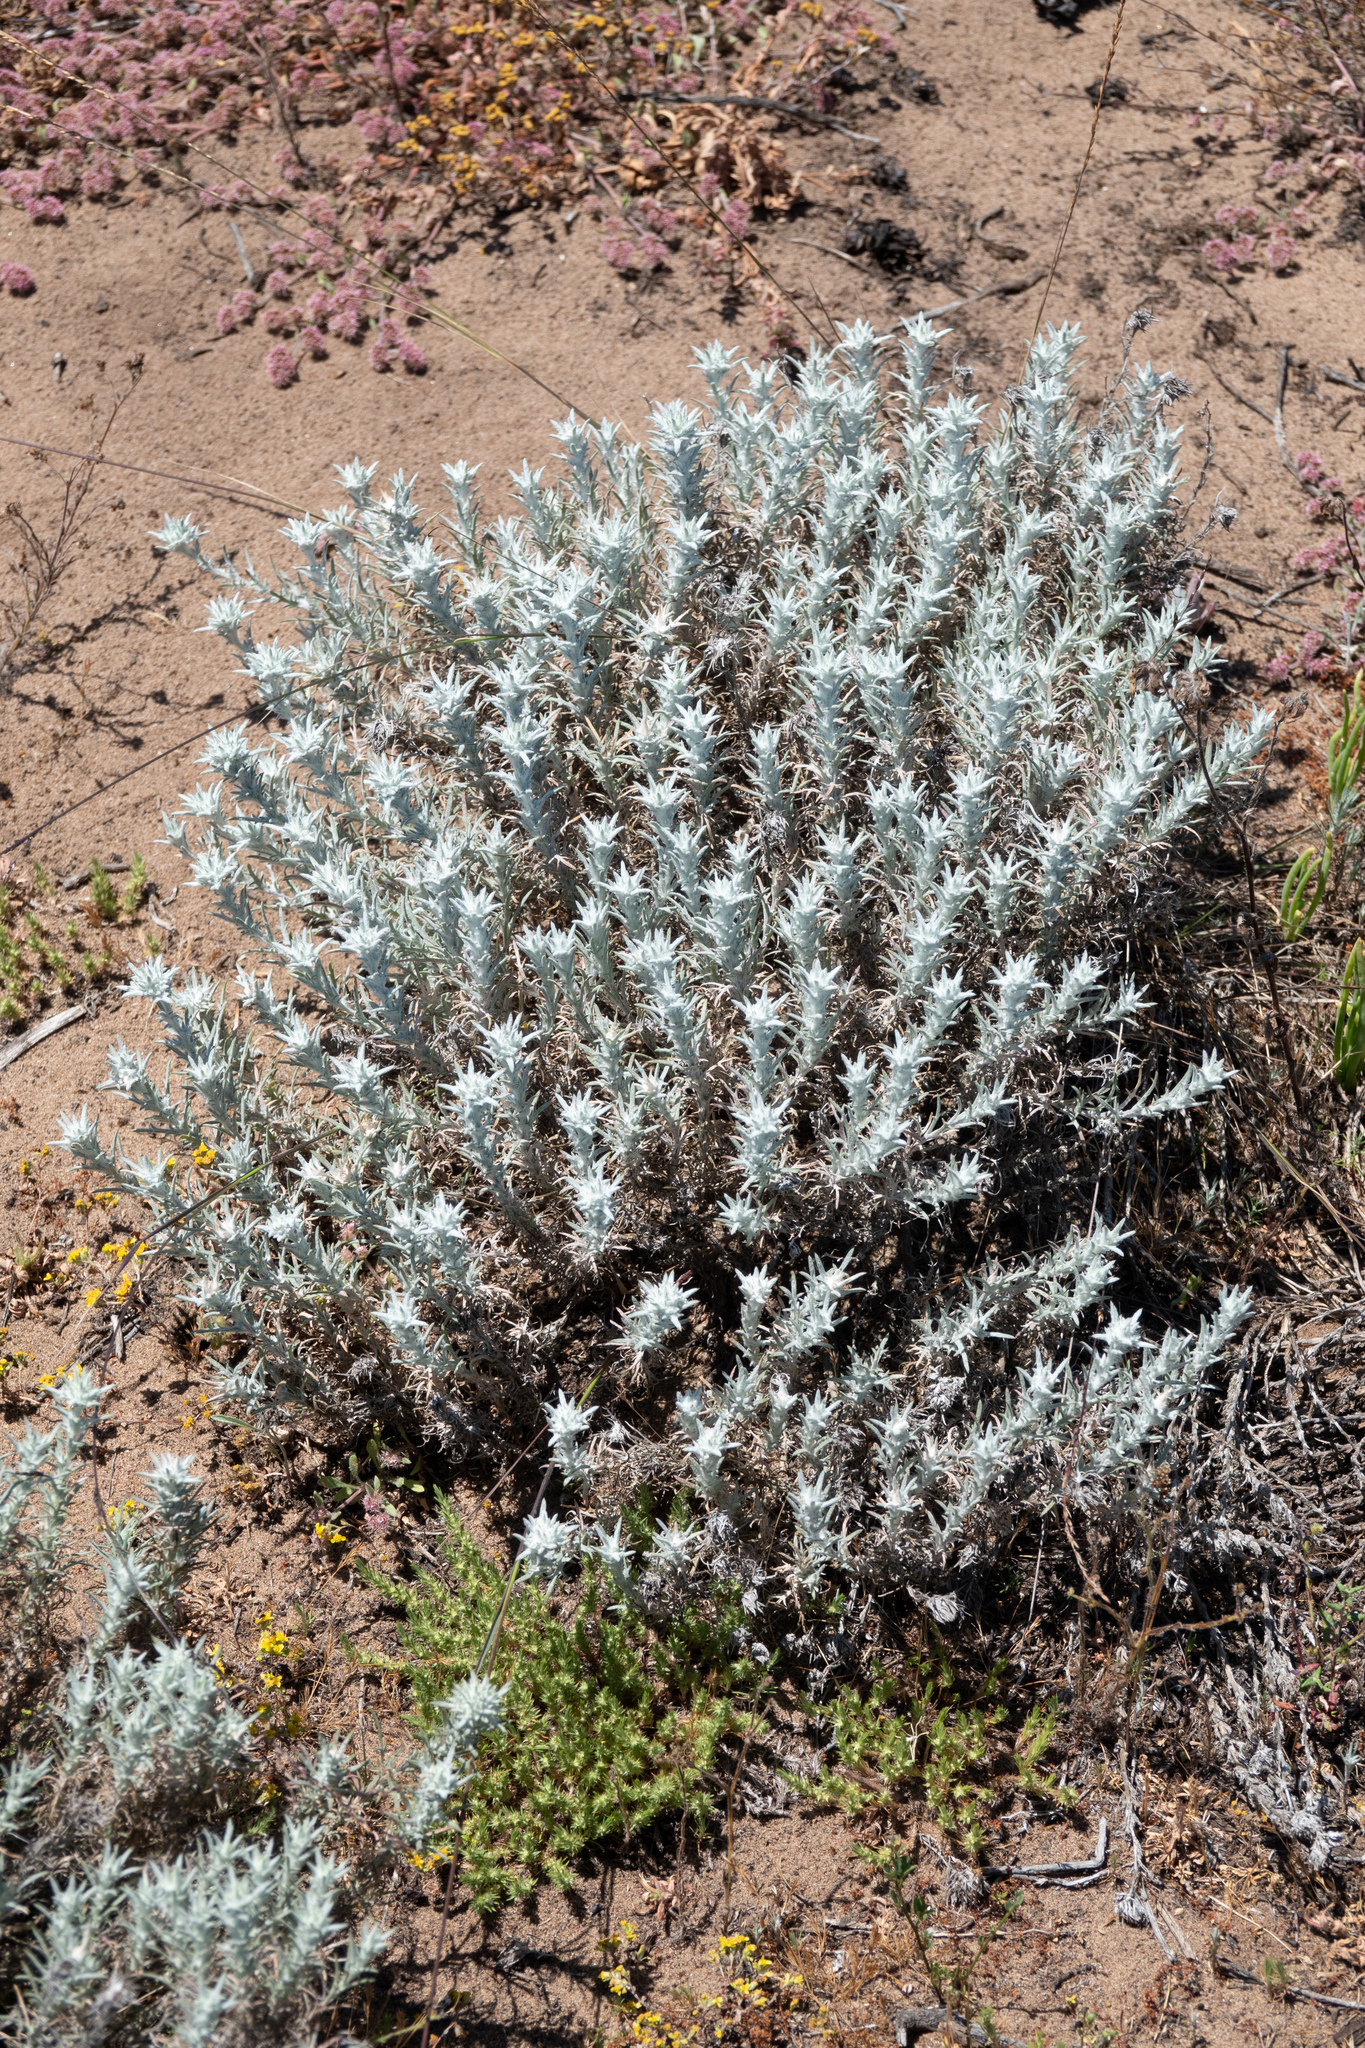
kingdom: Plantae
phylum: Tracheophyta
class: Magnoliopsida
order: Ericales
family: Polemoniaceae
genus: Eriastrum
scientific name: Eriastrum densifolium
